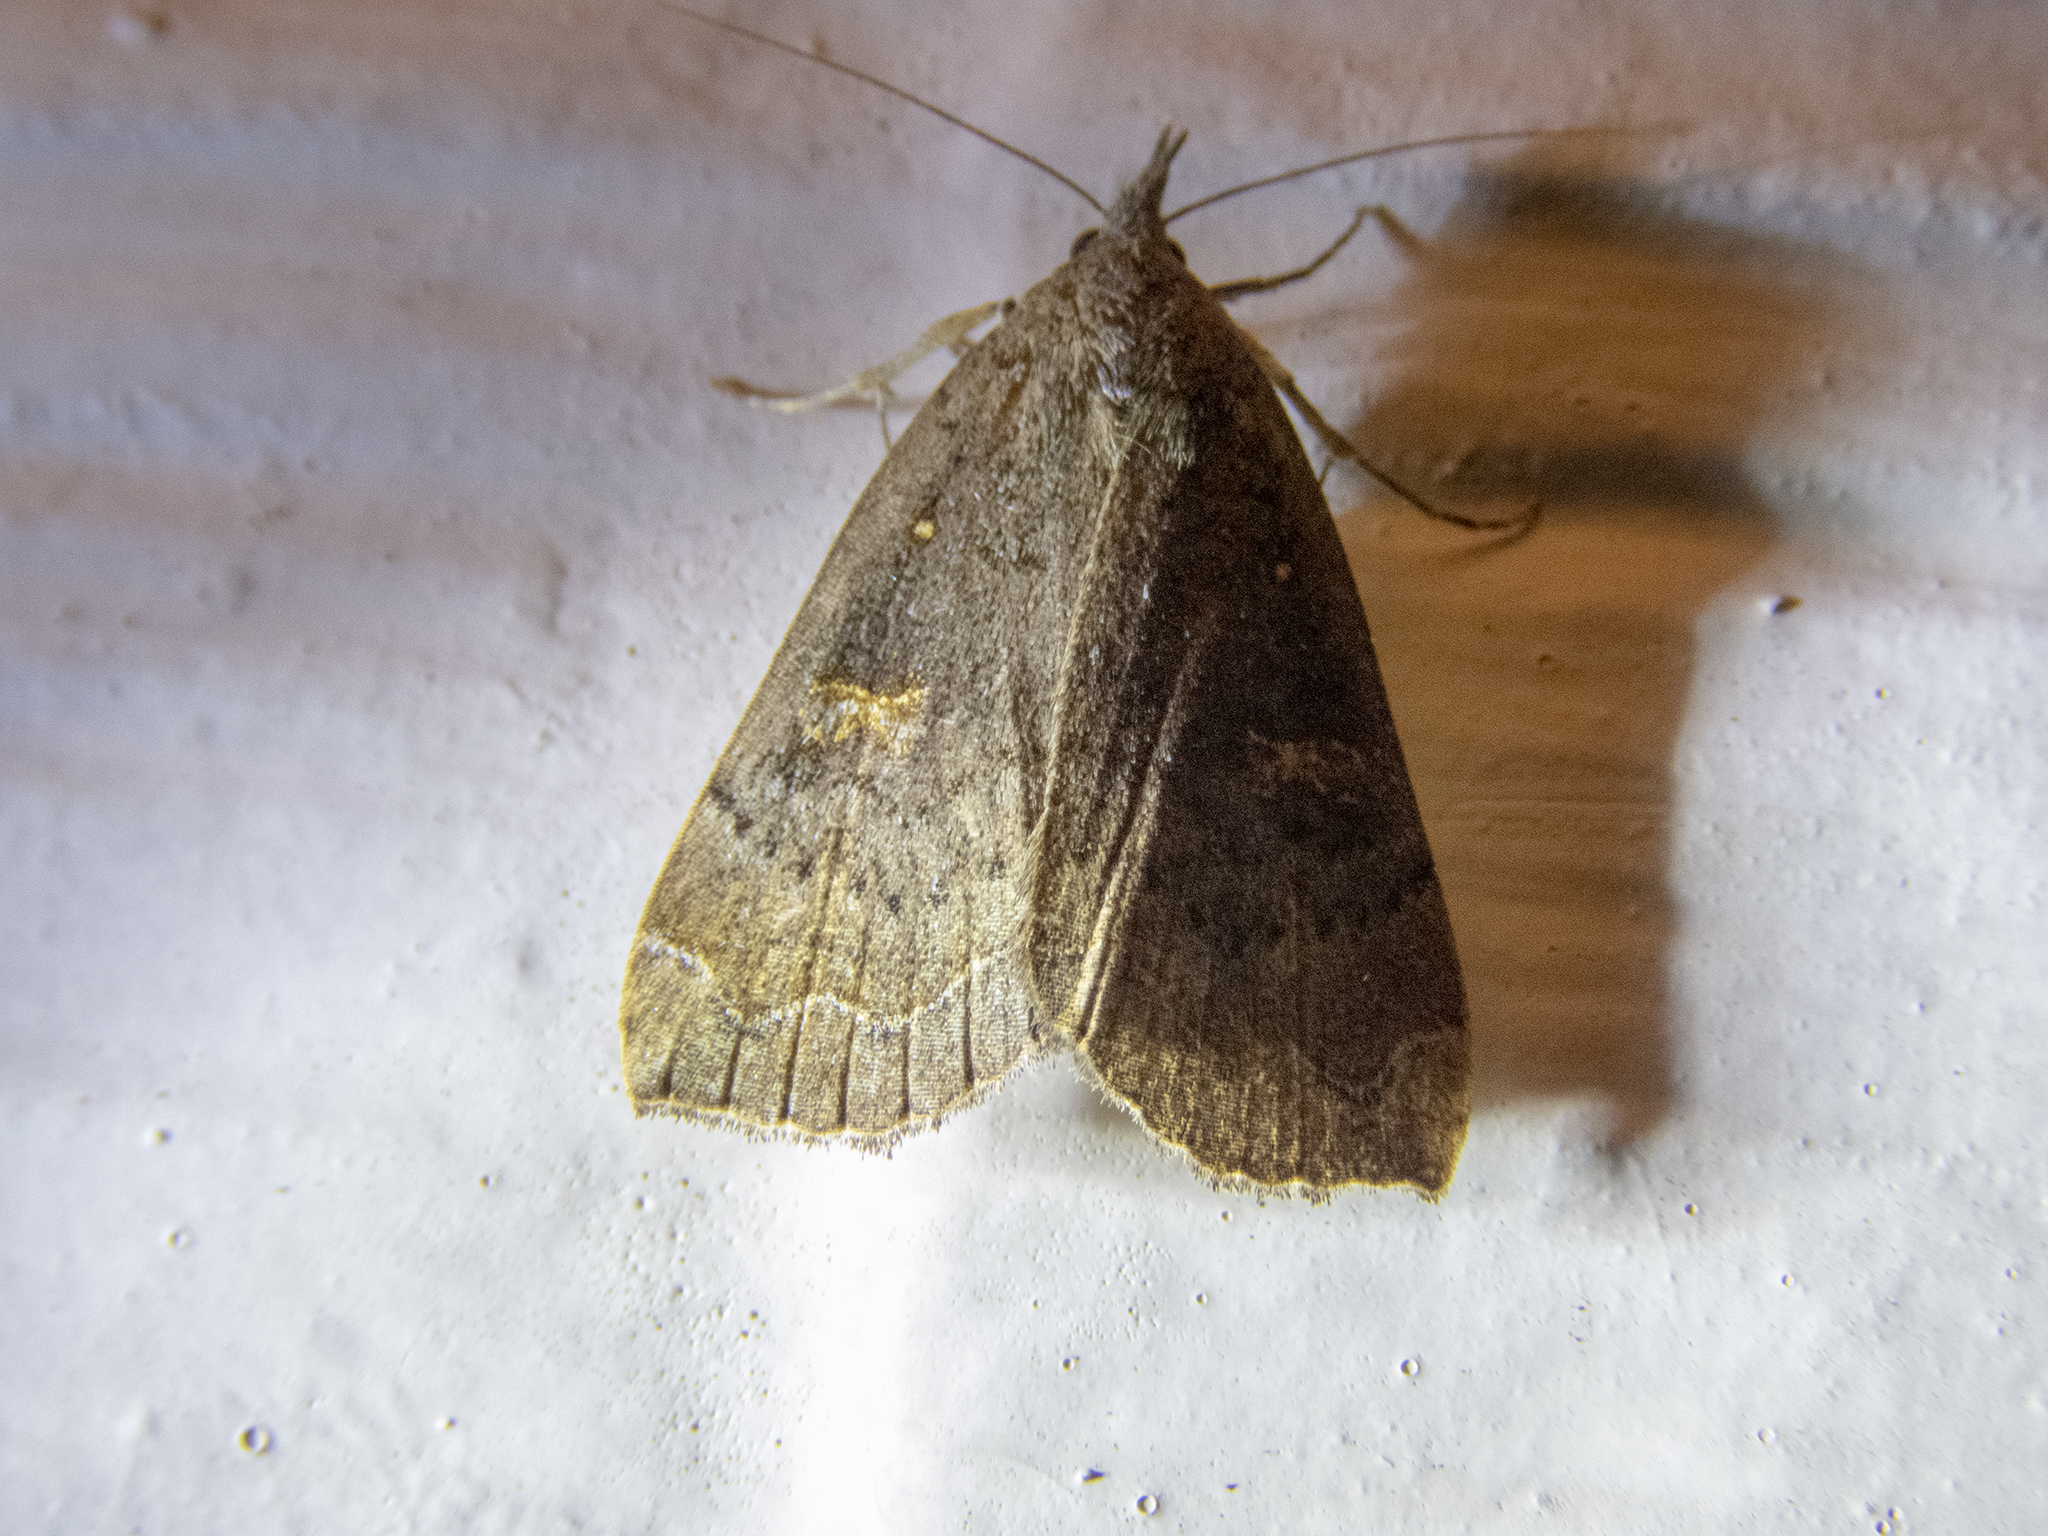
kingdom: Animalia
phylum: Arthropoda
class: Insecta
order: Lepidoptera
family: Erebidae
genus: Rhapsa
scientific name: Rhapsa scotosialis
